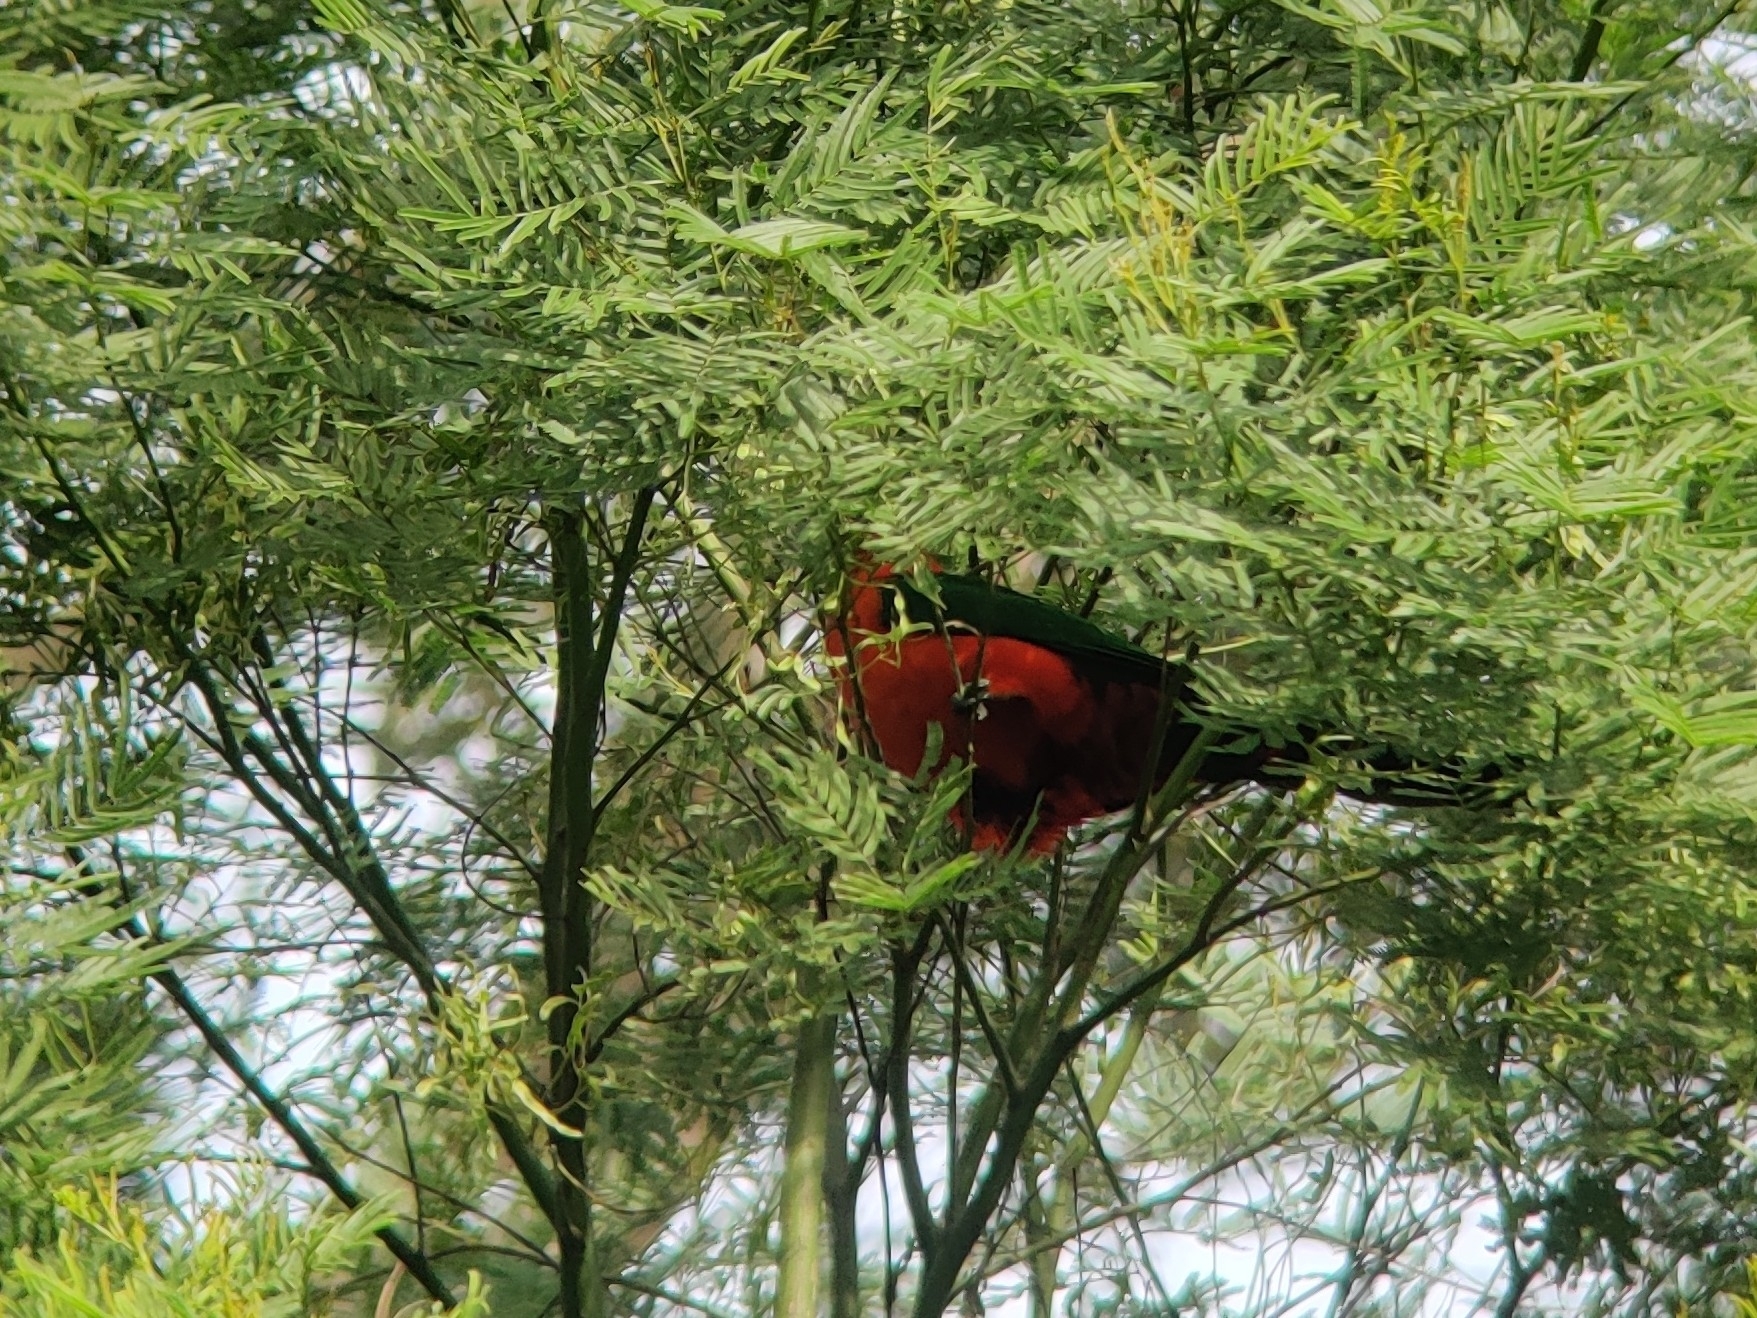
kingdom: Animalia
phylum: Chordata
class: Aves
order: Psittaciformes
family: Psittacidae
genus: Alisterus
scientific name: Alisterus scapularis
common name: Australian king parrot
